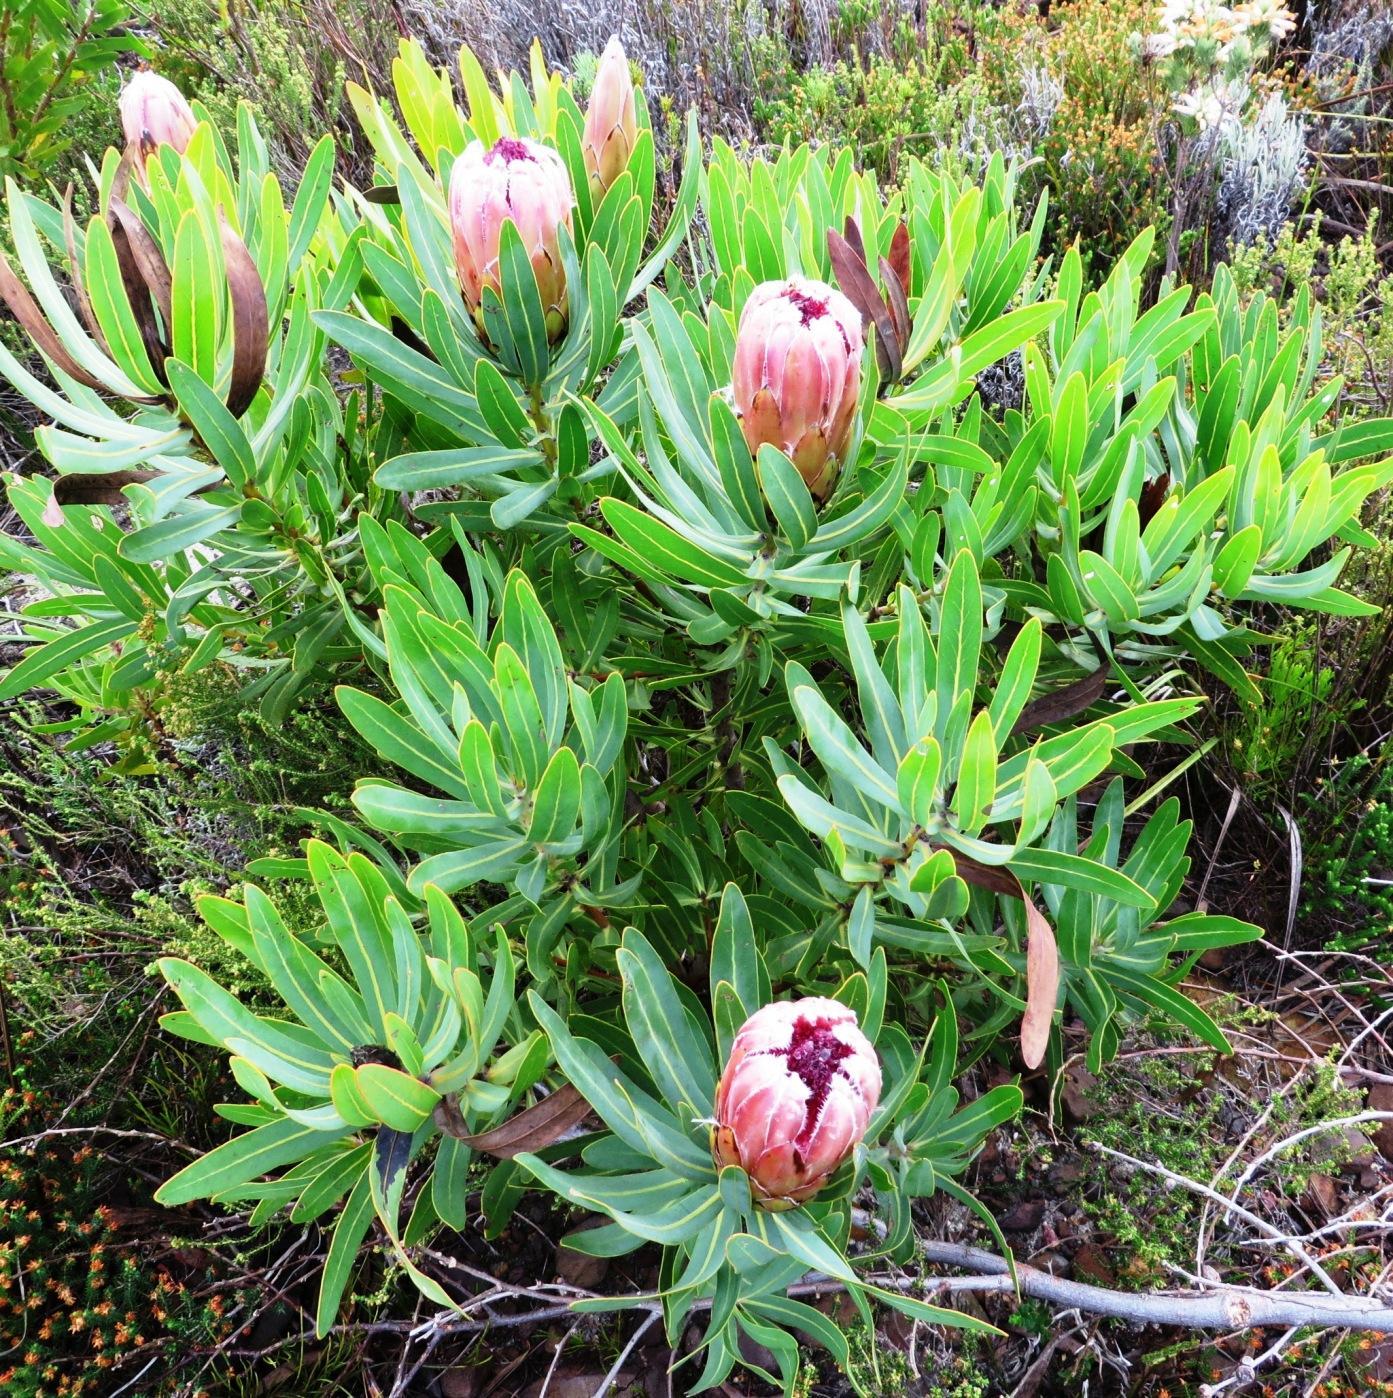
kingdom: Plantae
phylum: Tracheophyta
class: Magnoliopsida
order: Proteales
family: Proteaceae
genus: Protea
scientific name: Protea
